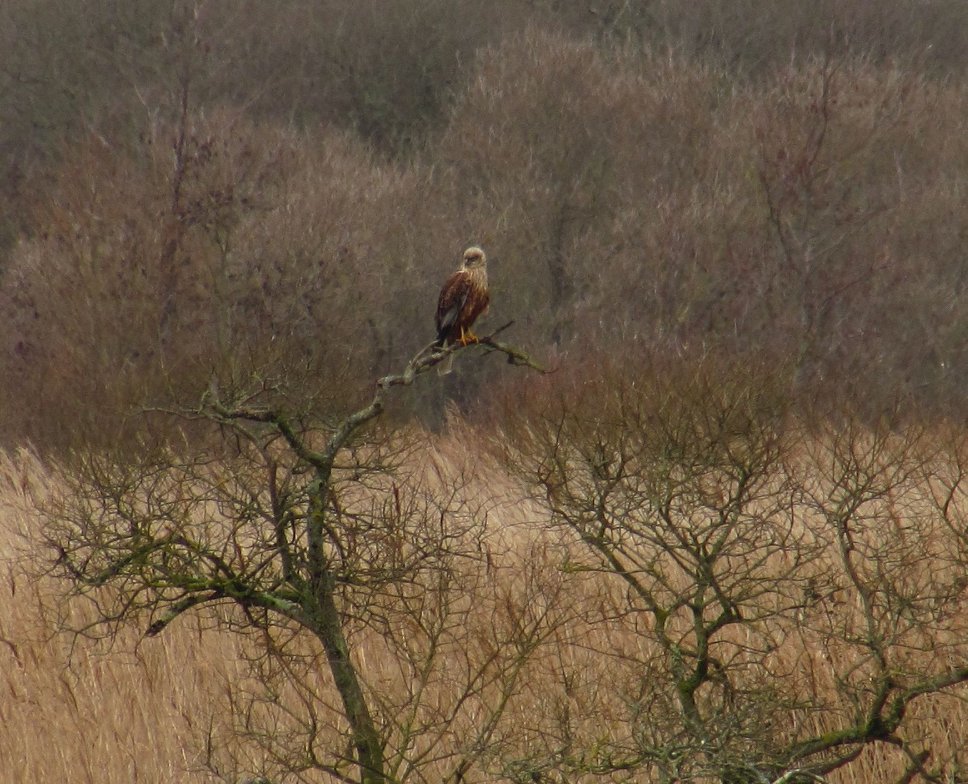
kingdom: Animalia
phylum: Chordata
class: Aves
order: Accipitriformes
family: Accipitridae
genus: Circus
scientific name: Circus aeruginosus
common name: Western marsh harrier
